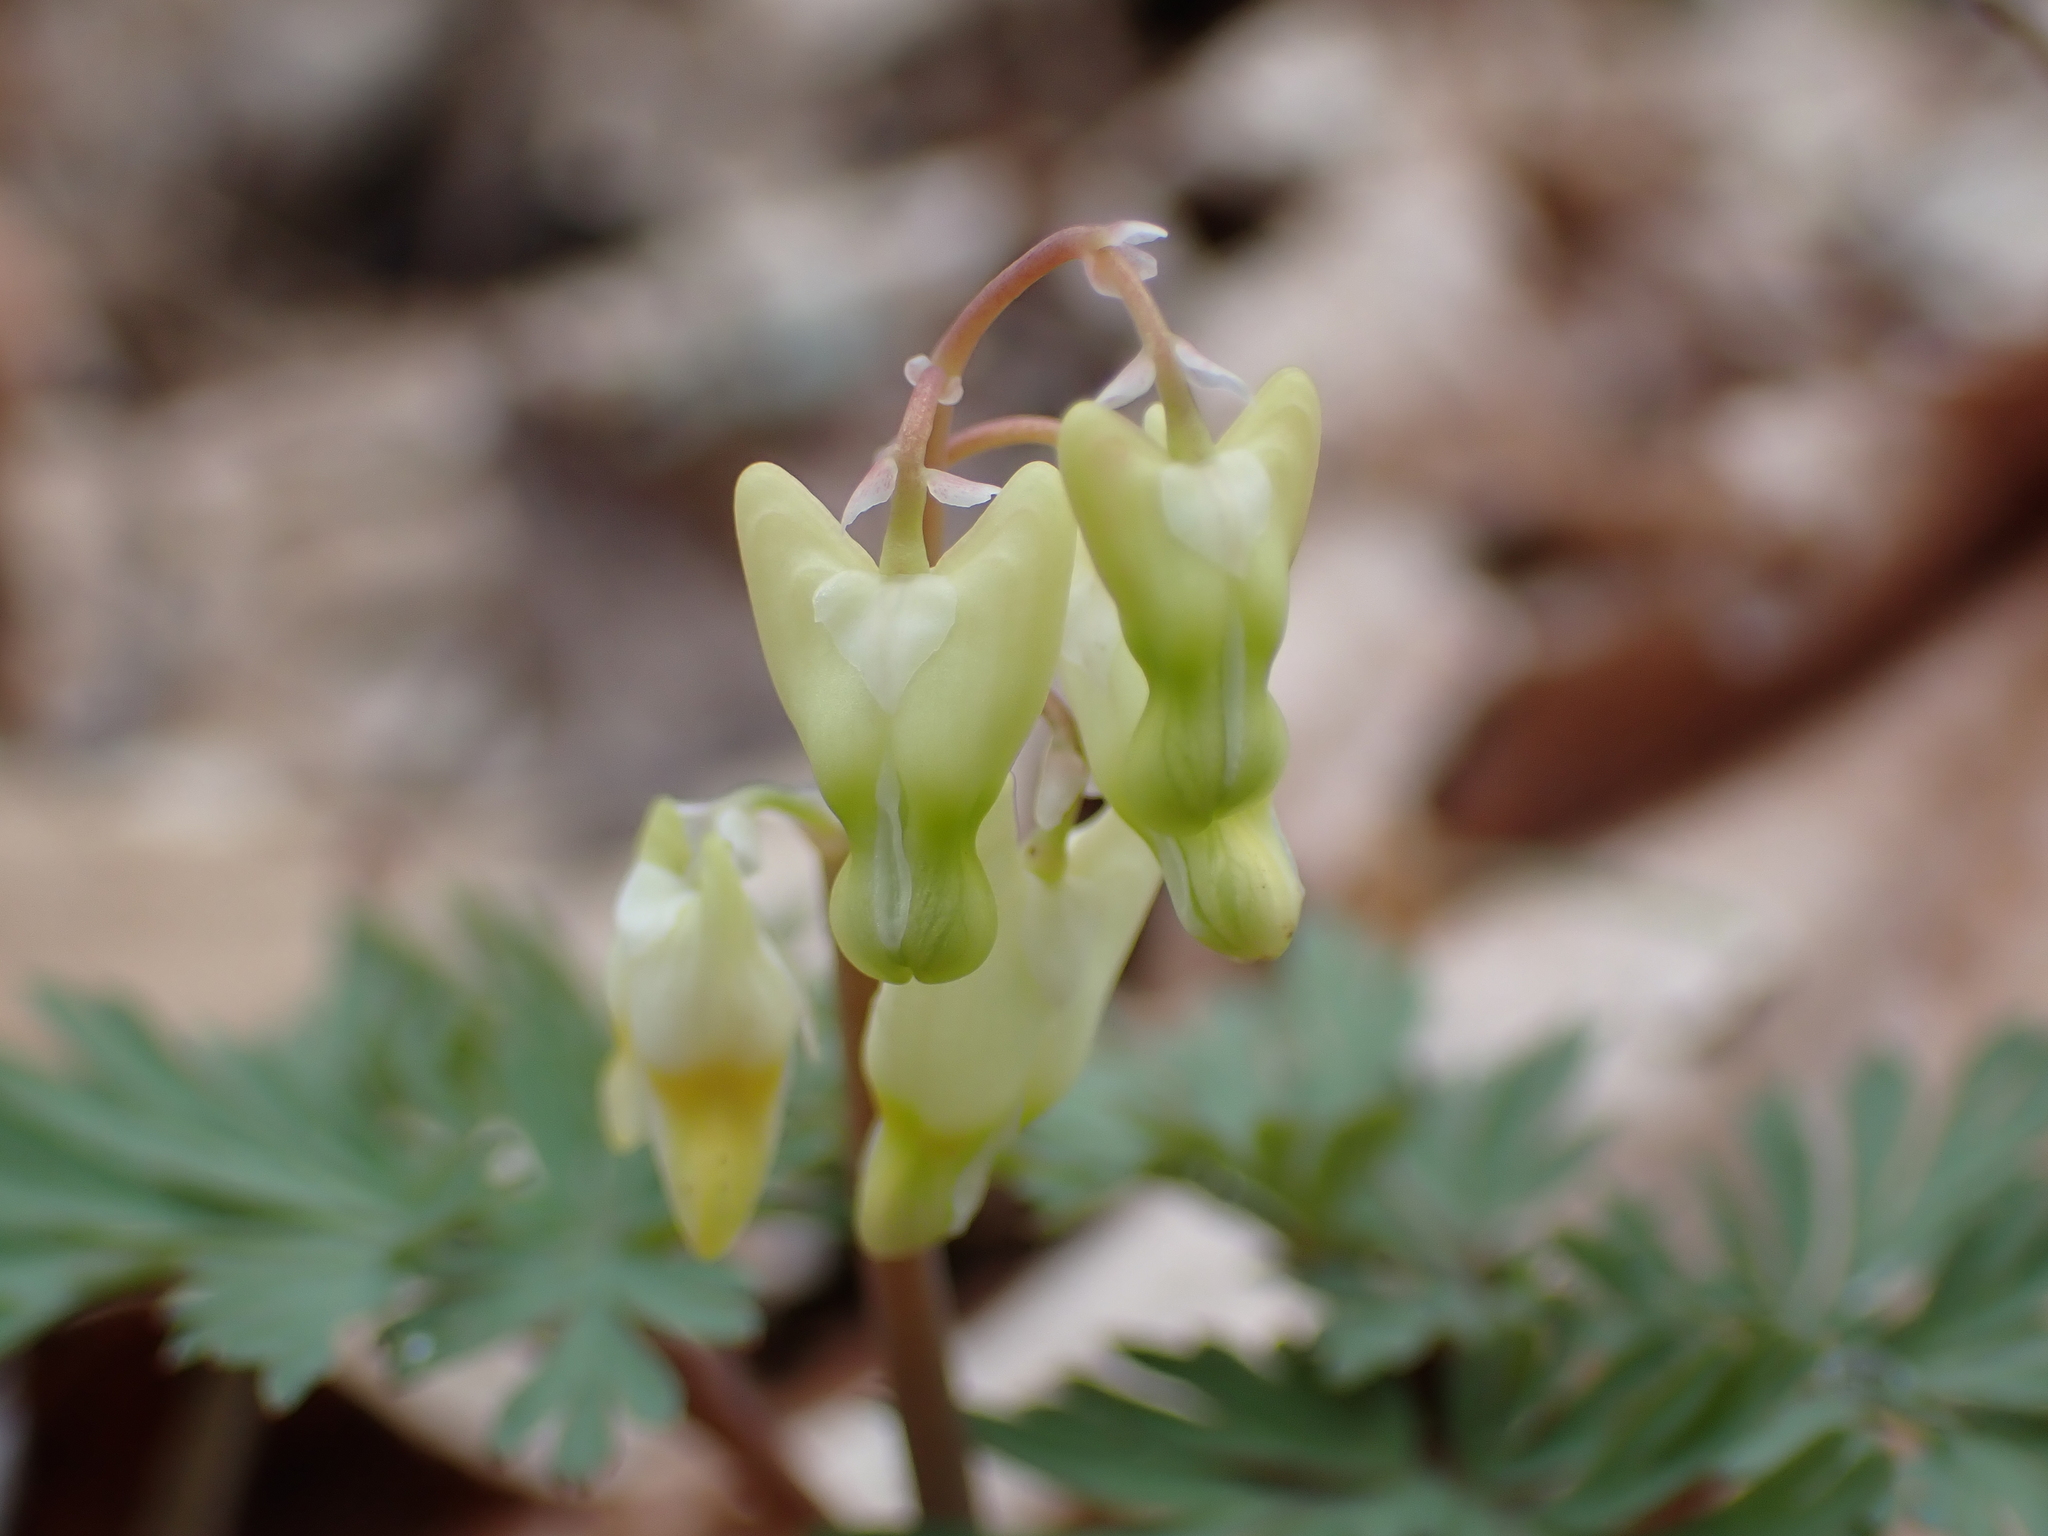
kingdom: Plantae
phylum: Tracheophyta
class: Magnoliopsida
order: Ranunculales
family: Papaveraceae
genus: Dicentra
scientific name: Dicentra cucullaria
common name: Dutchman's breeches
